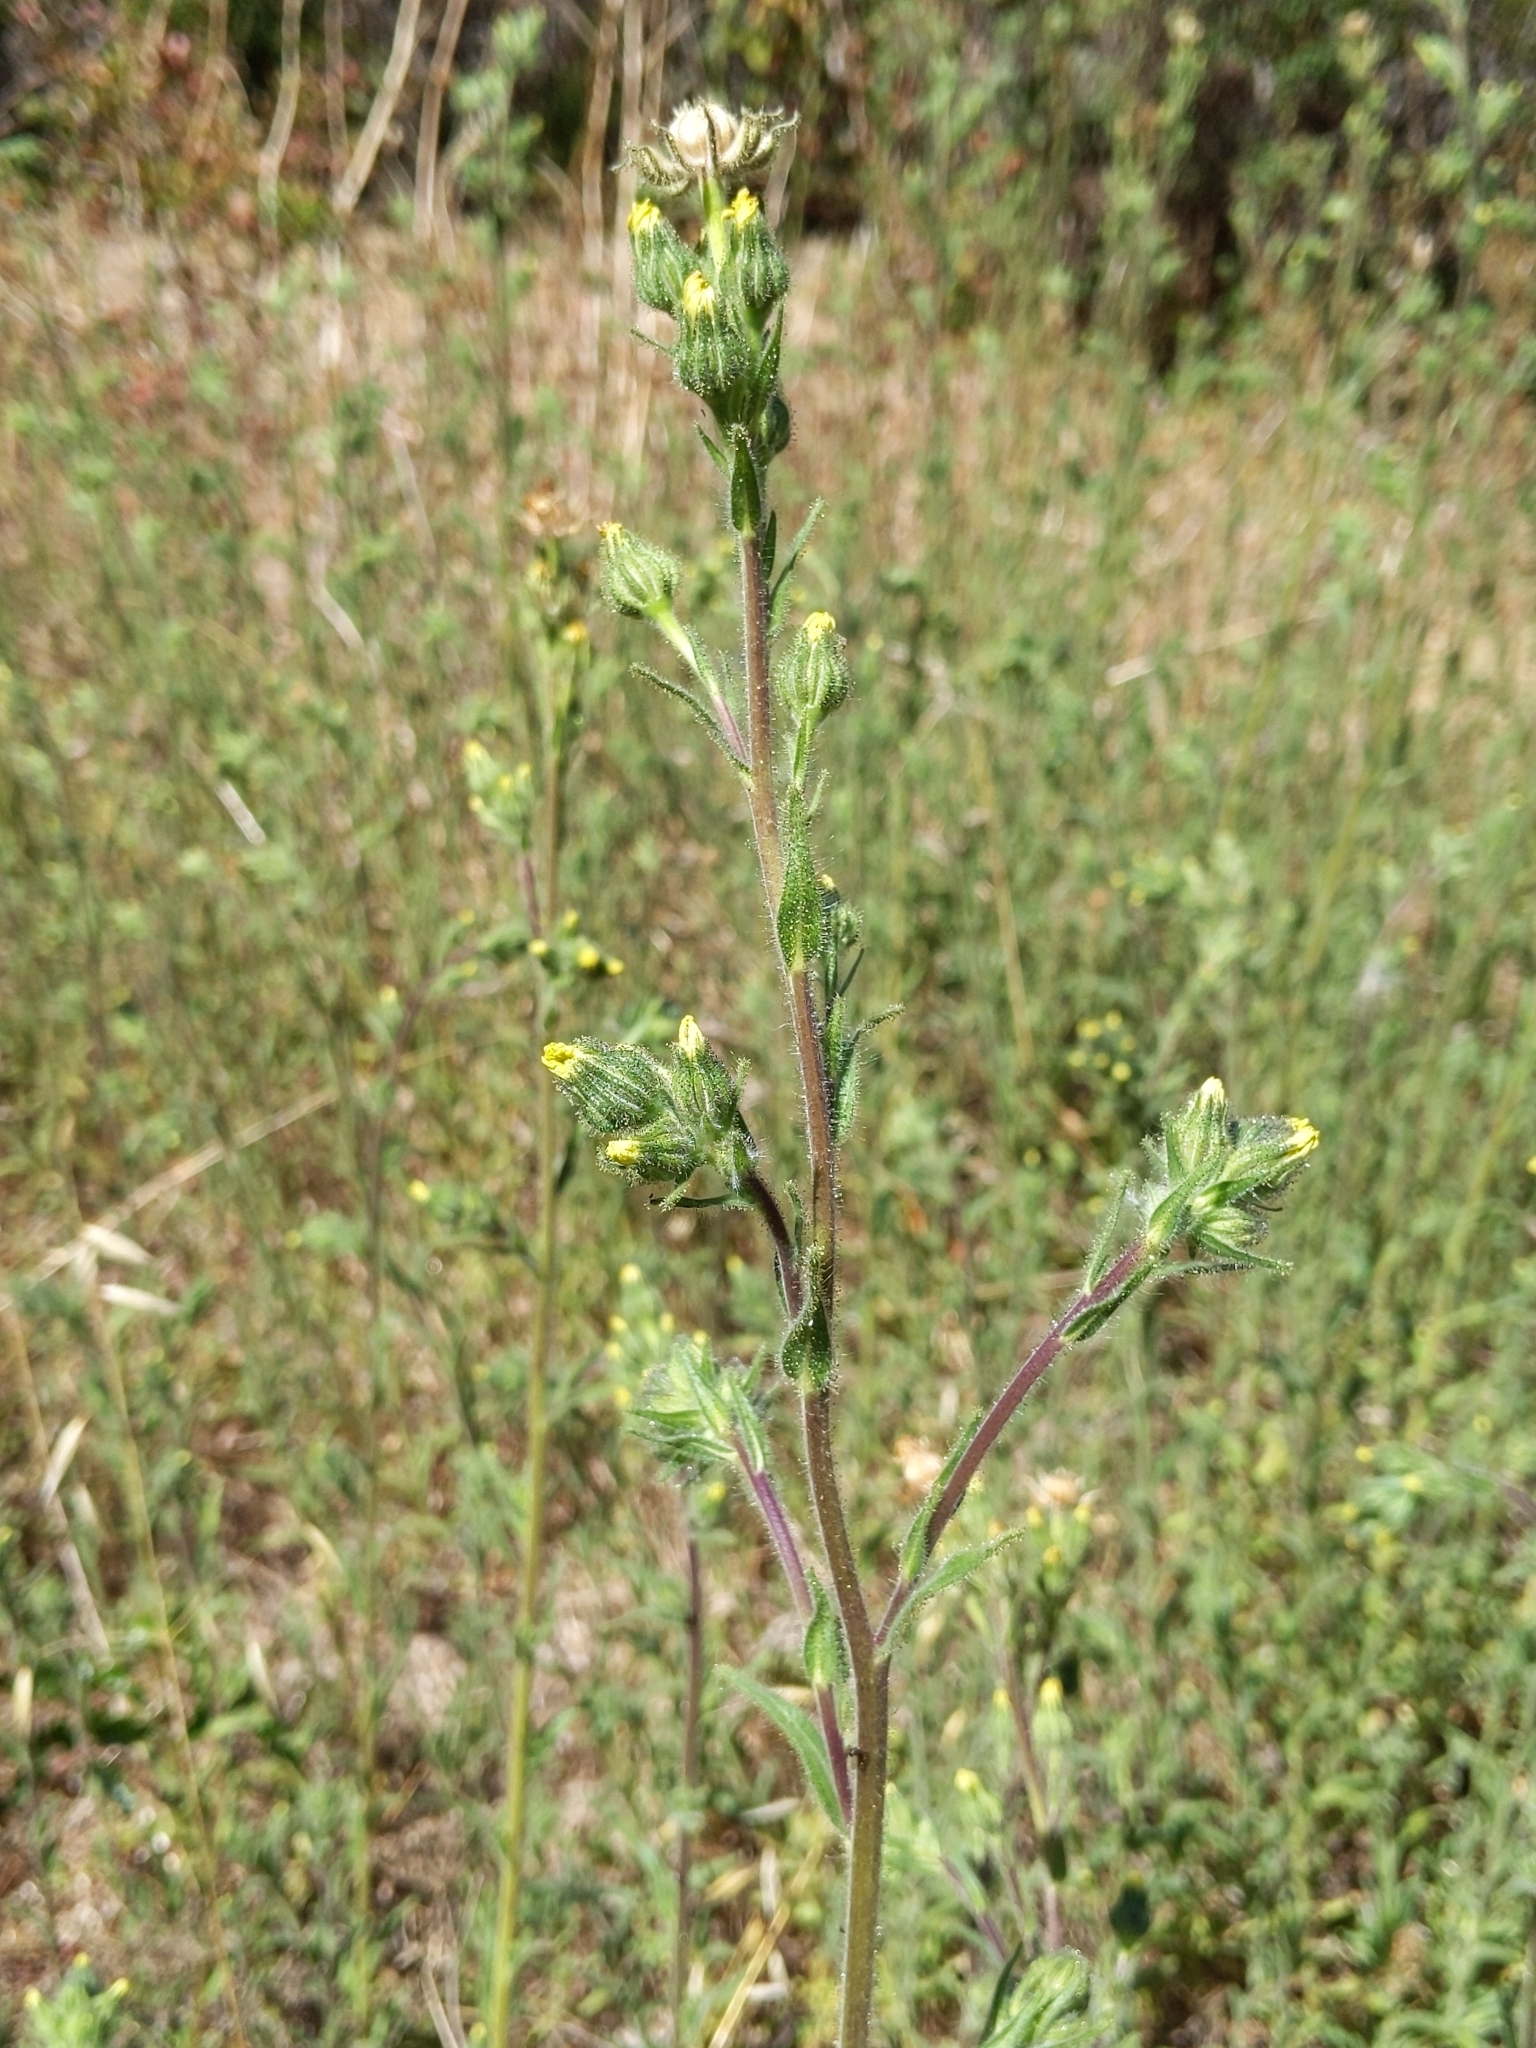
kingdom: Plantae
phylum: Tracheophyta
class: Magnoliopsida
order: Asterales
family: Asteraceae
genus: Madia
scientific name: Madia sativa
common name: Coast tarweed
